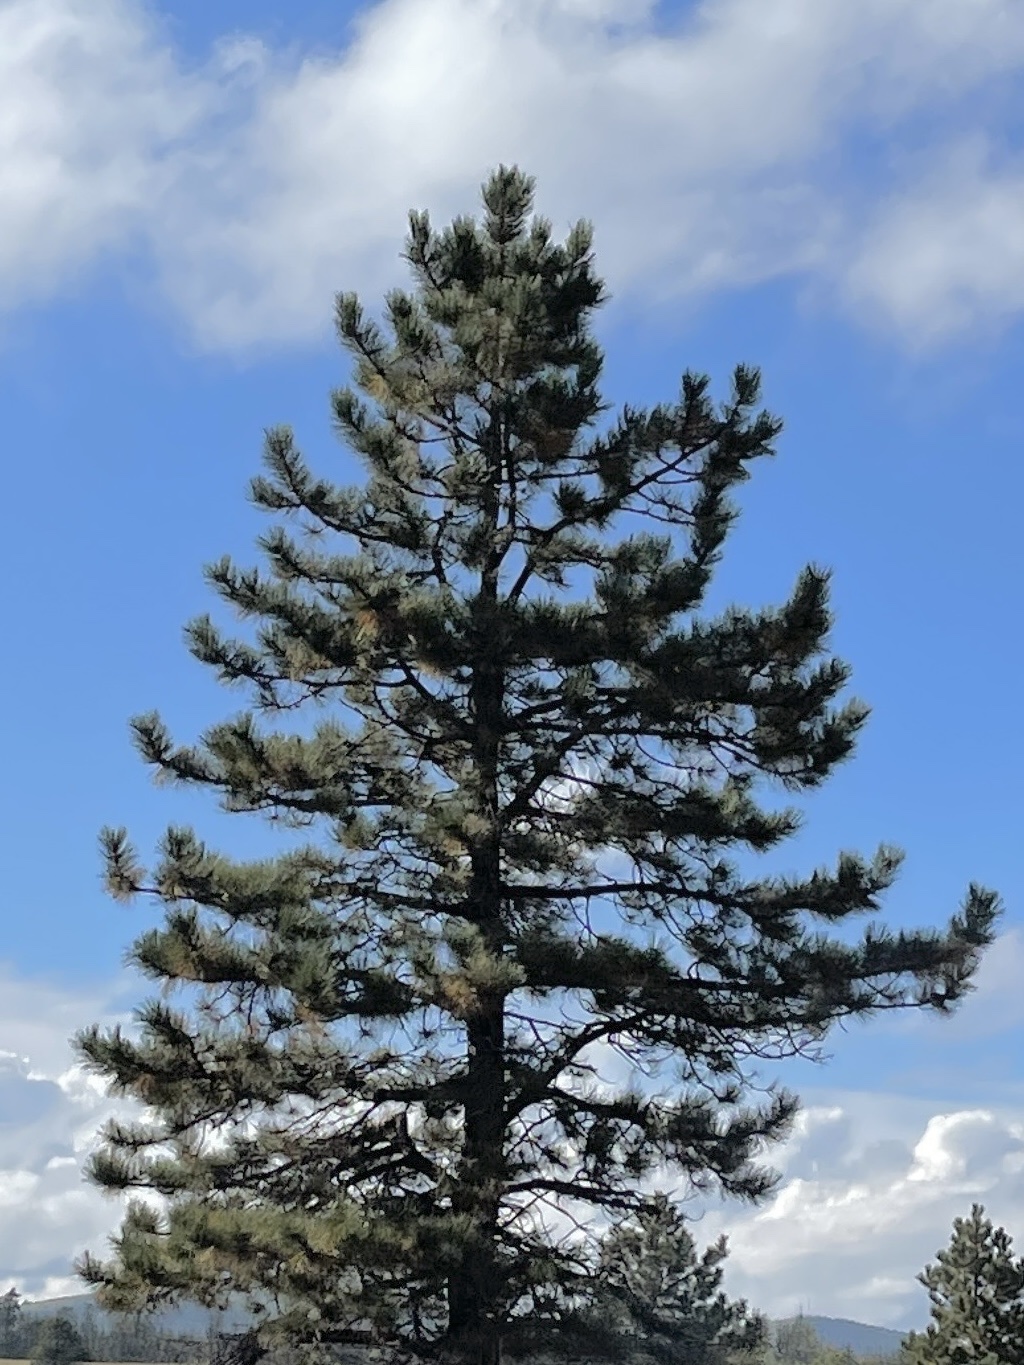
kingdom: Plantae
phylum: Tracheophyta
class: Pinopsida
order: Pinales
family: Pinaceae
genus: Pinus
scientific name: Pinus ponderosa
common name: Western yellow-pine
